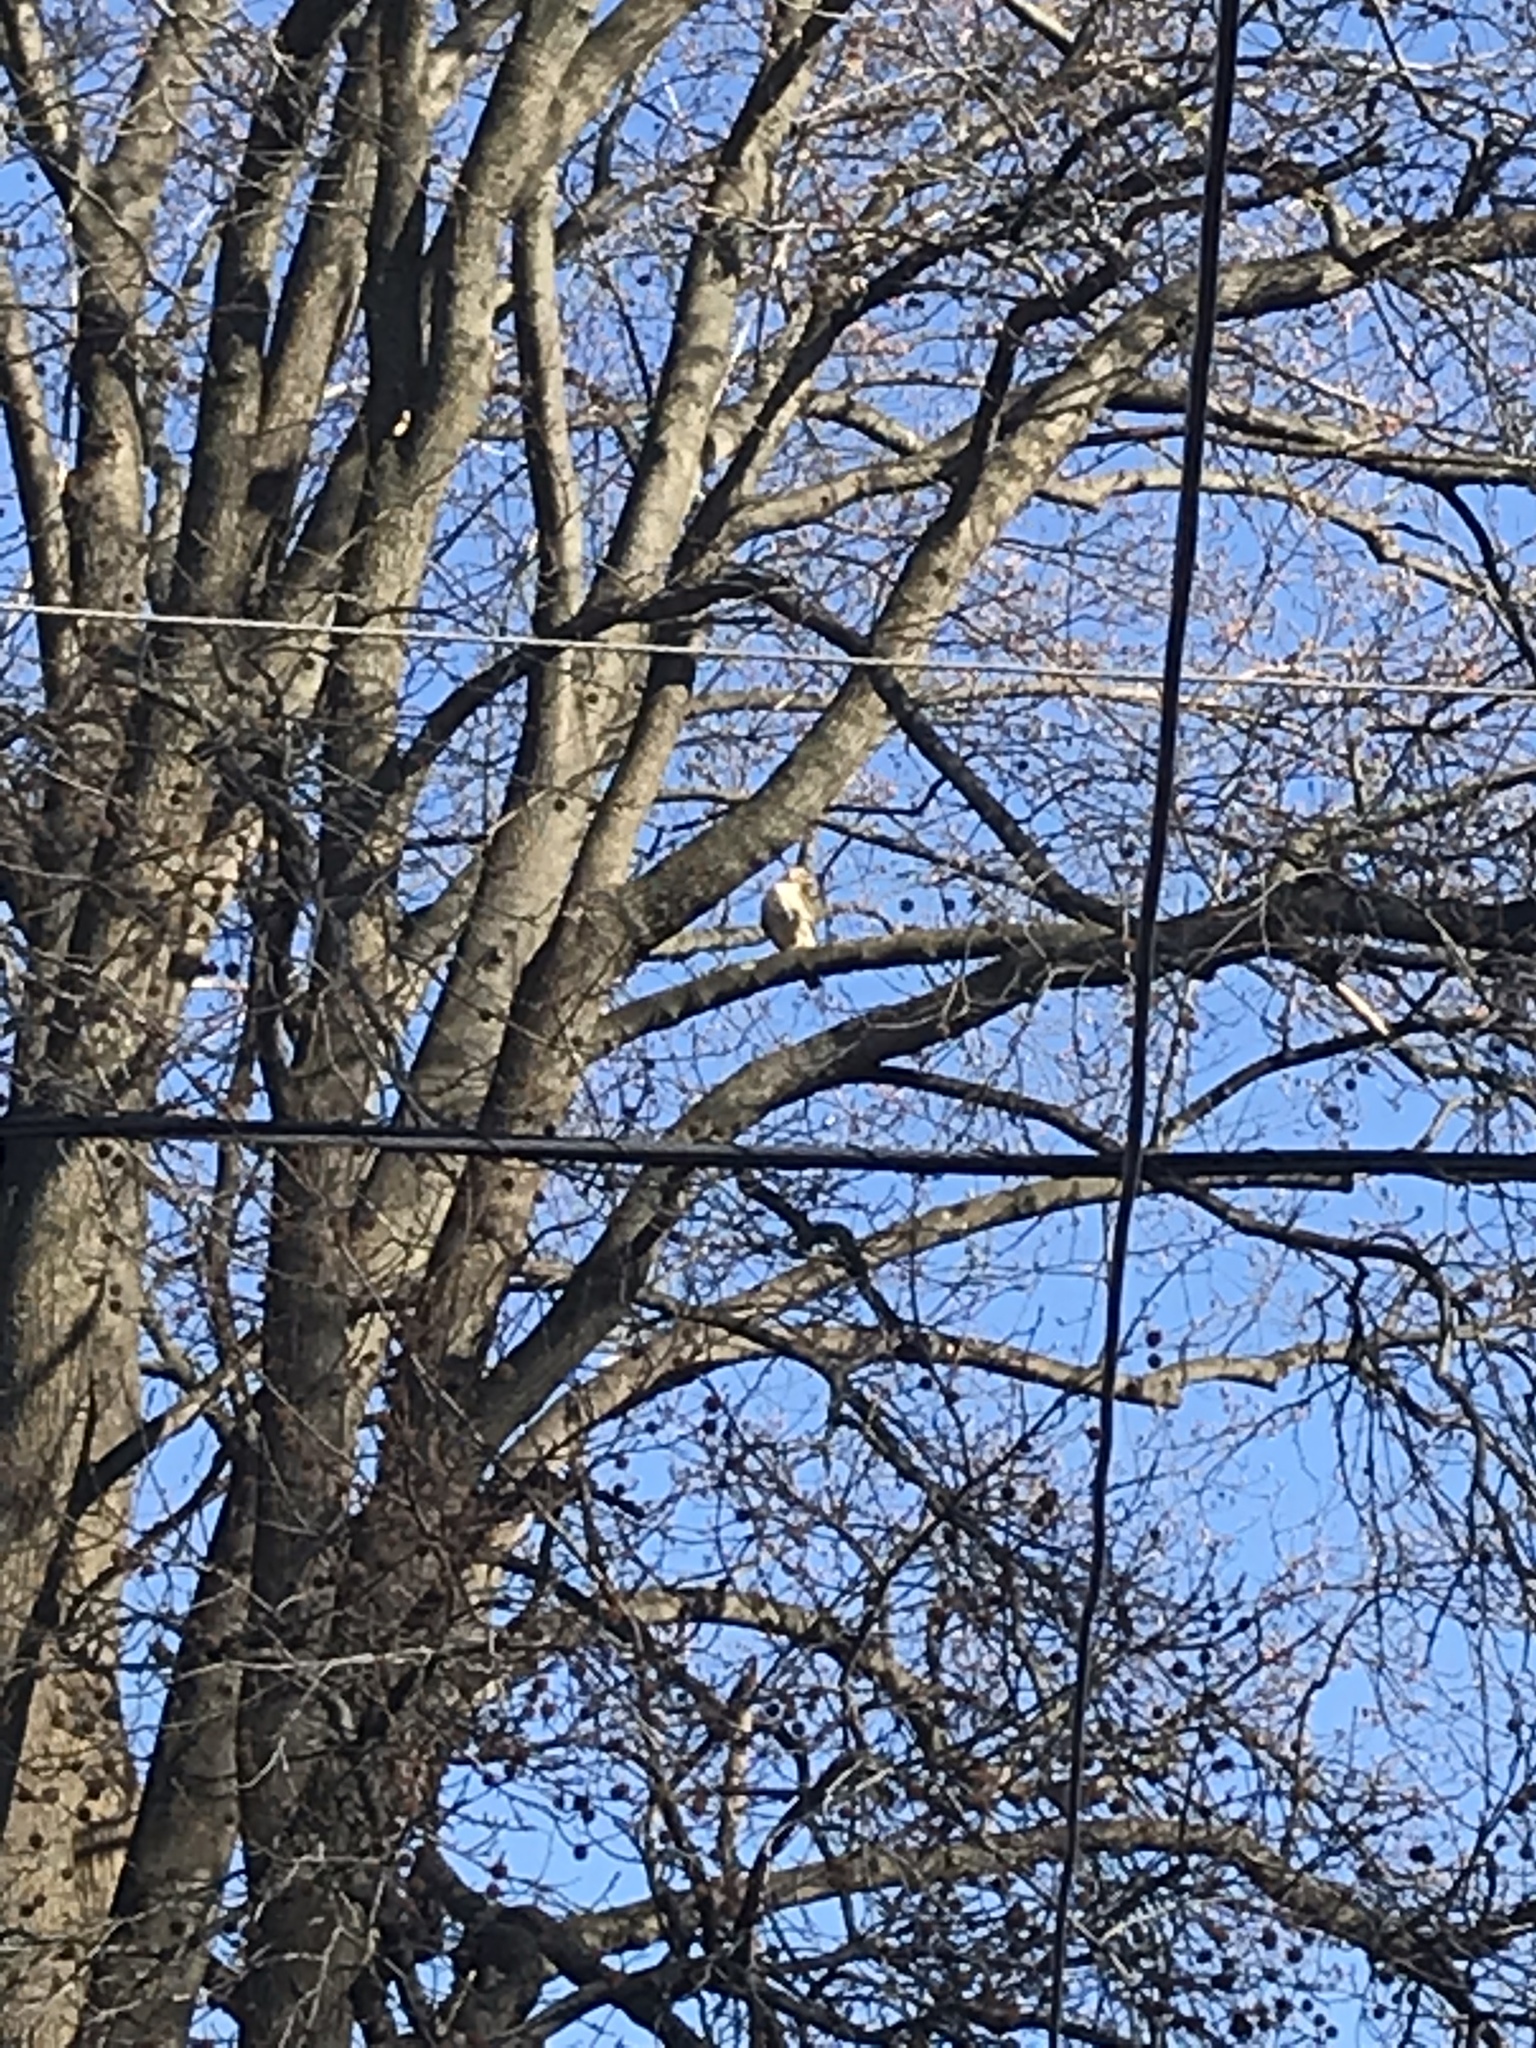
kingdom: Animalia
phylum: Chordata
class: Aves
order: Accipitriformes
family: Accipitridae
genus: Buteo
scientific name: Buteo jamaicensis
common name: Red-tailed hawk
